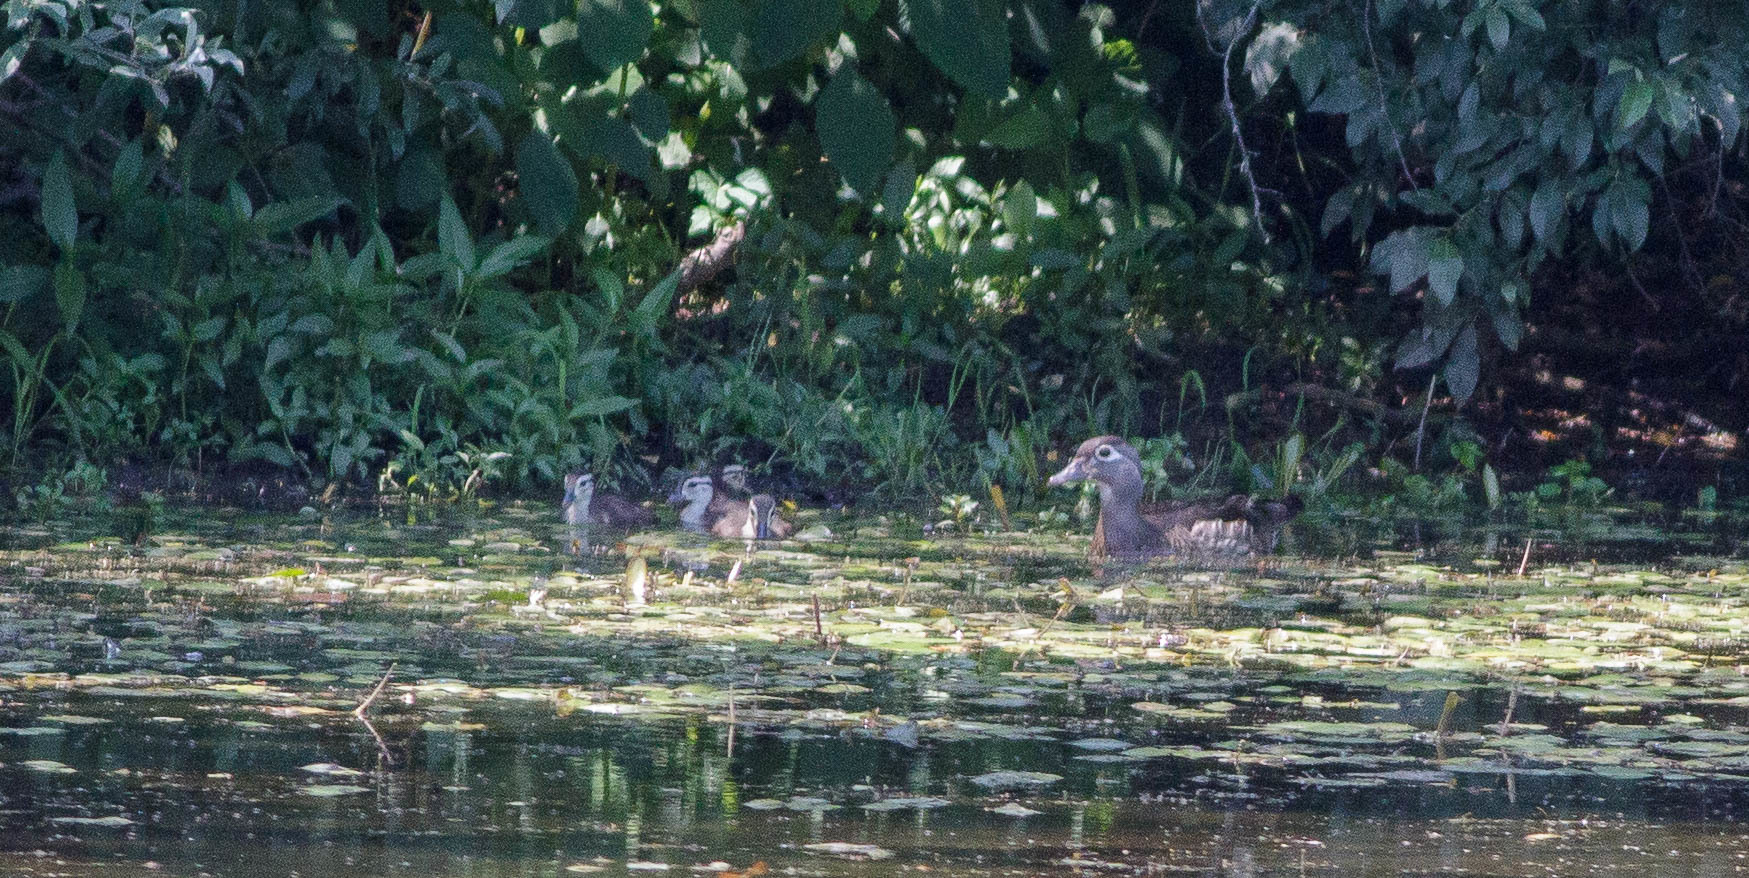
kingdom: Animalia
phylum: Chordata
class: Aves
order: Anseriformes
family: Anatidae
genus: Aix
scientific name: Aix sponsa
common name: Wood duck
